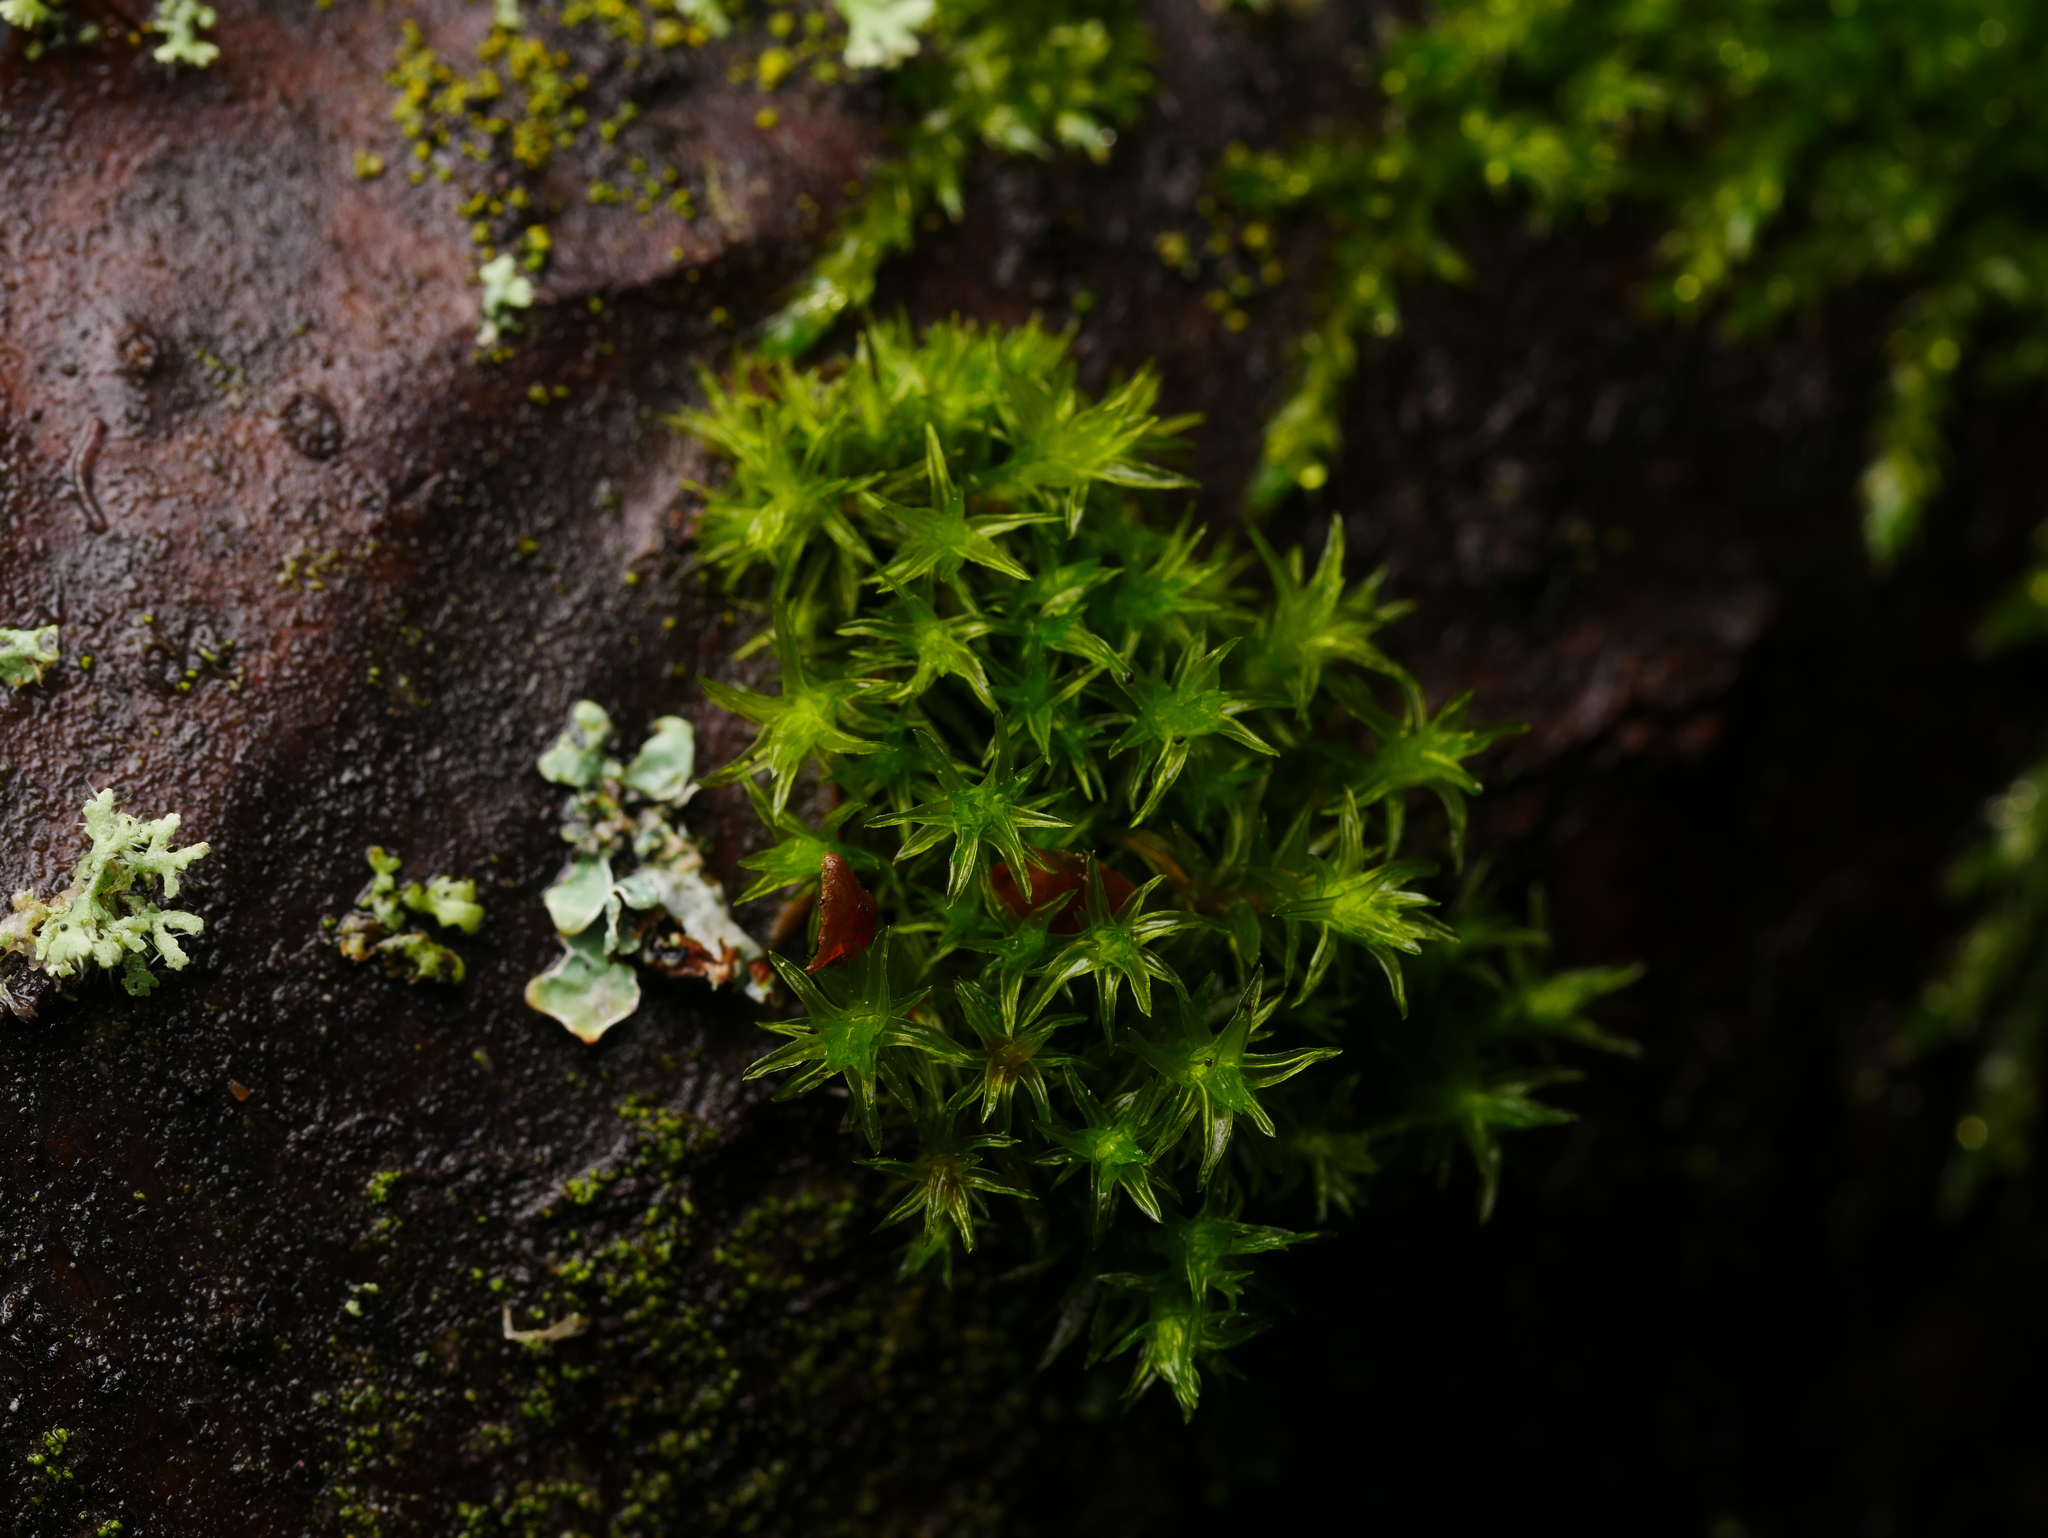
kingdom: Plantae
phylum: Bryophyta
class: Bryopsida
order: Orthotrichales
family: Orthotrichaceae
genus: Lewinskya
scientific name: Lewinskya affinis
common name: Wood bristle-moss
